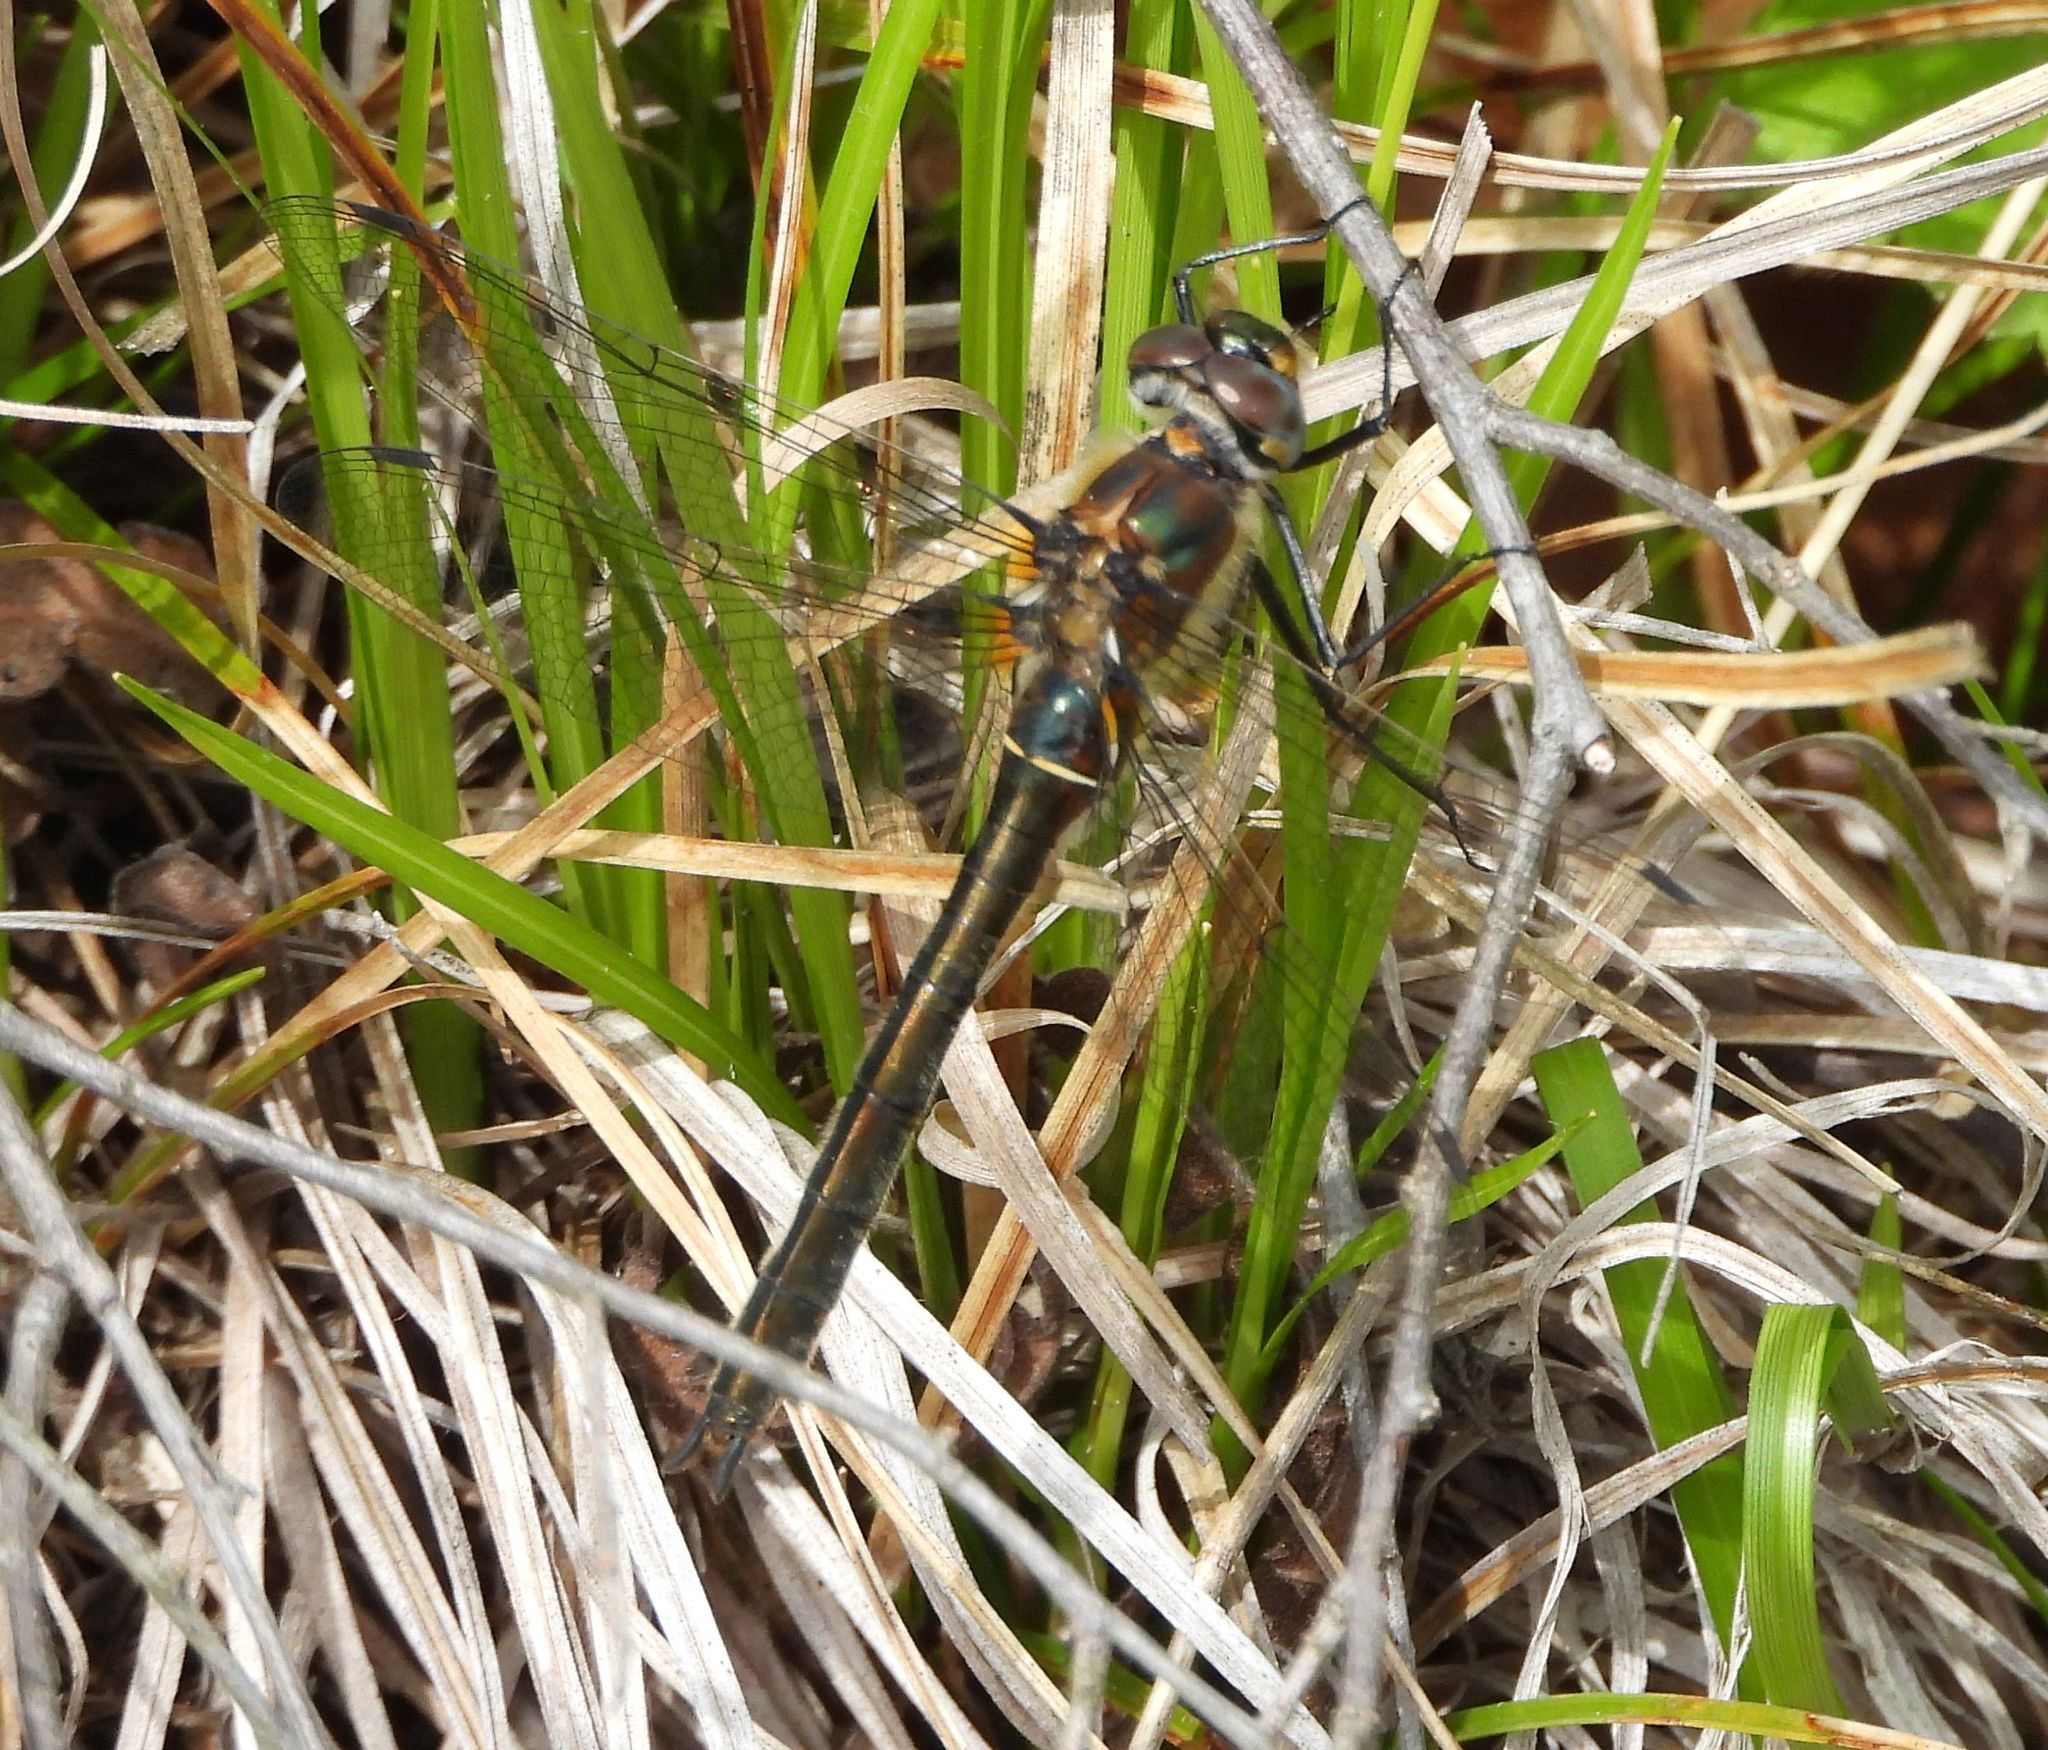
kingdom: Animalia
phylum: Arthropoda
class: Insecta
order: Odonata
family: Corduliidae
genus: Cordulia
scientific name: Cordulia shurtleffii
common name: American emerald
